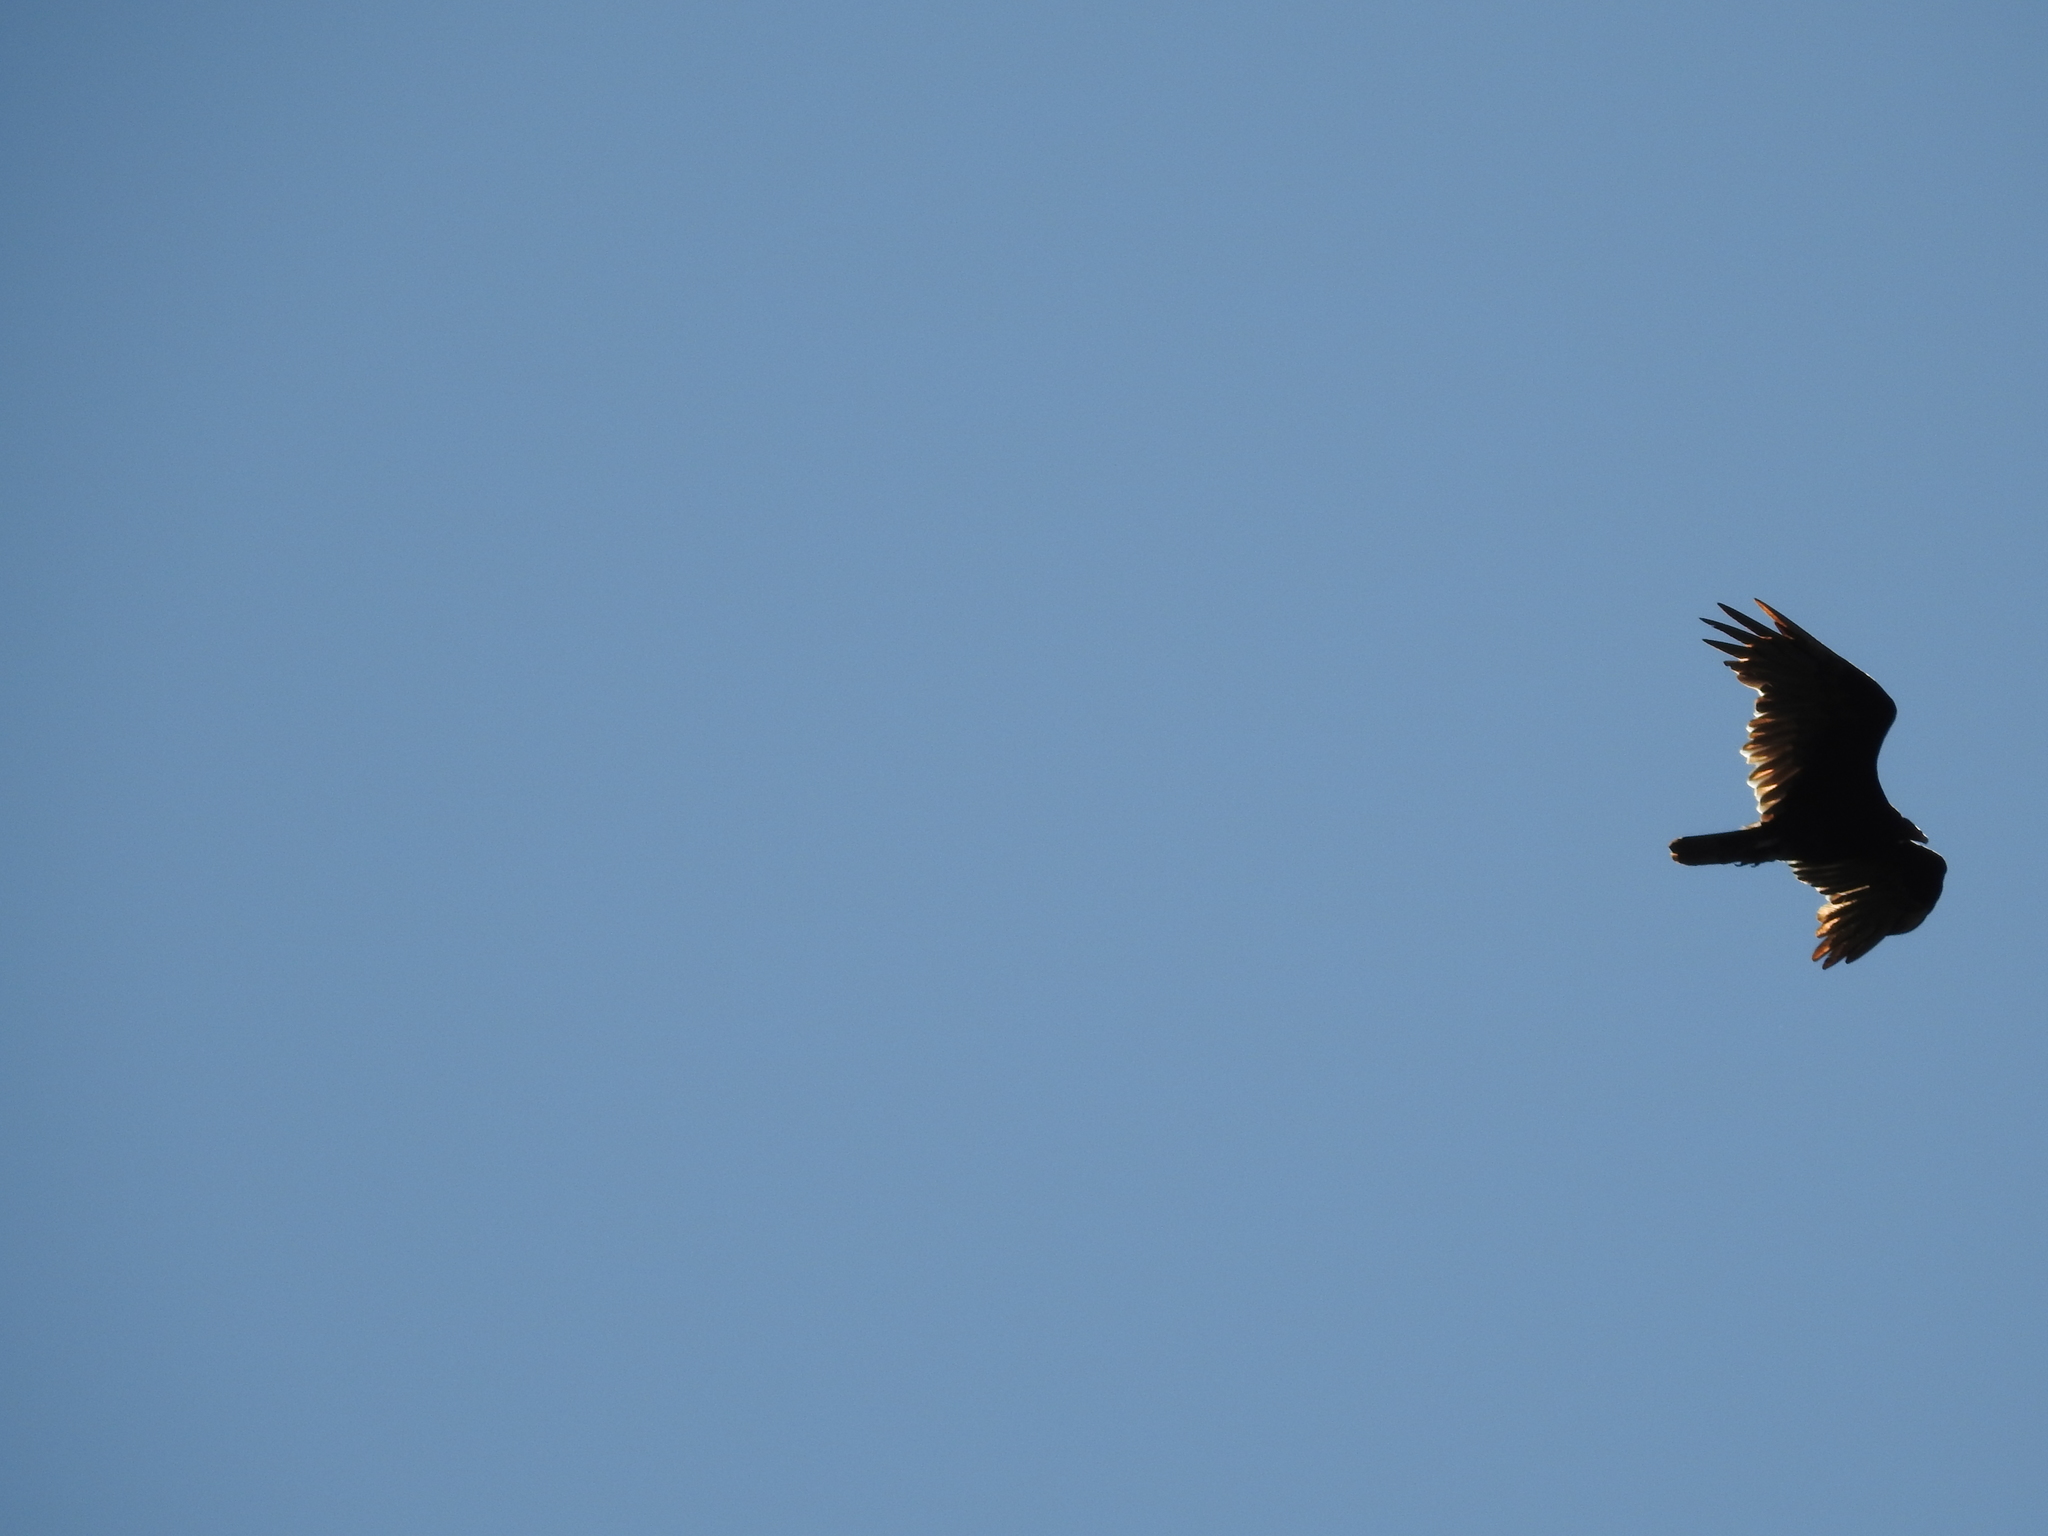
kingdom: Animalia
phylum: Chordata
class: Aves
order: Accipitriformes
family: Cathartidae
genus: Cathartes
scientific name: Cathartes aura
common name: Turkey vulture
